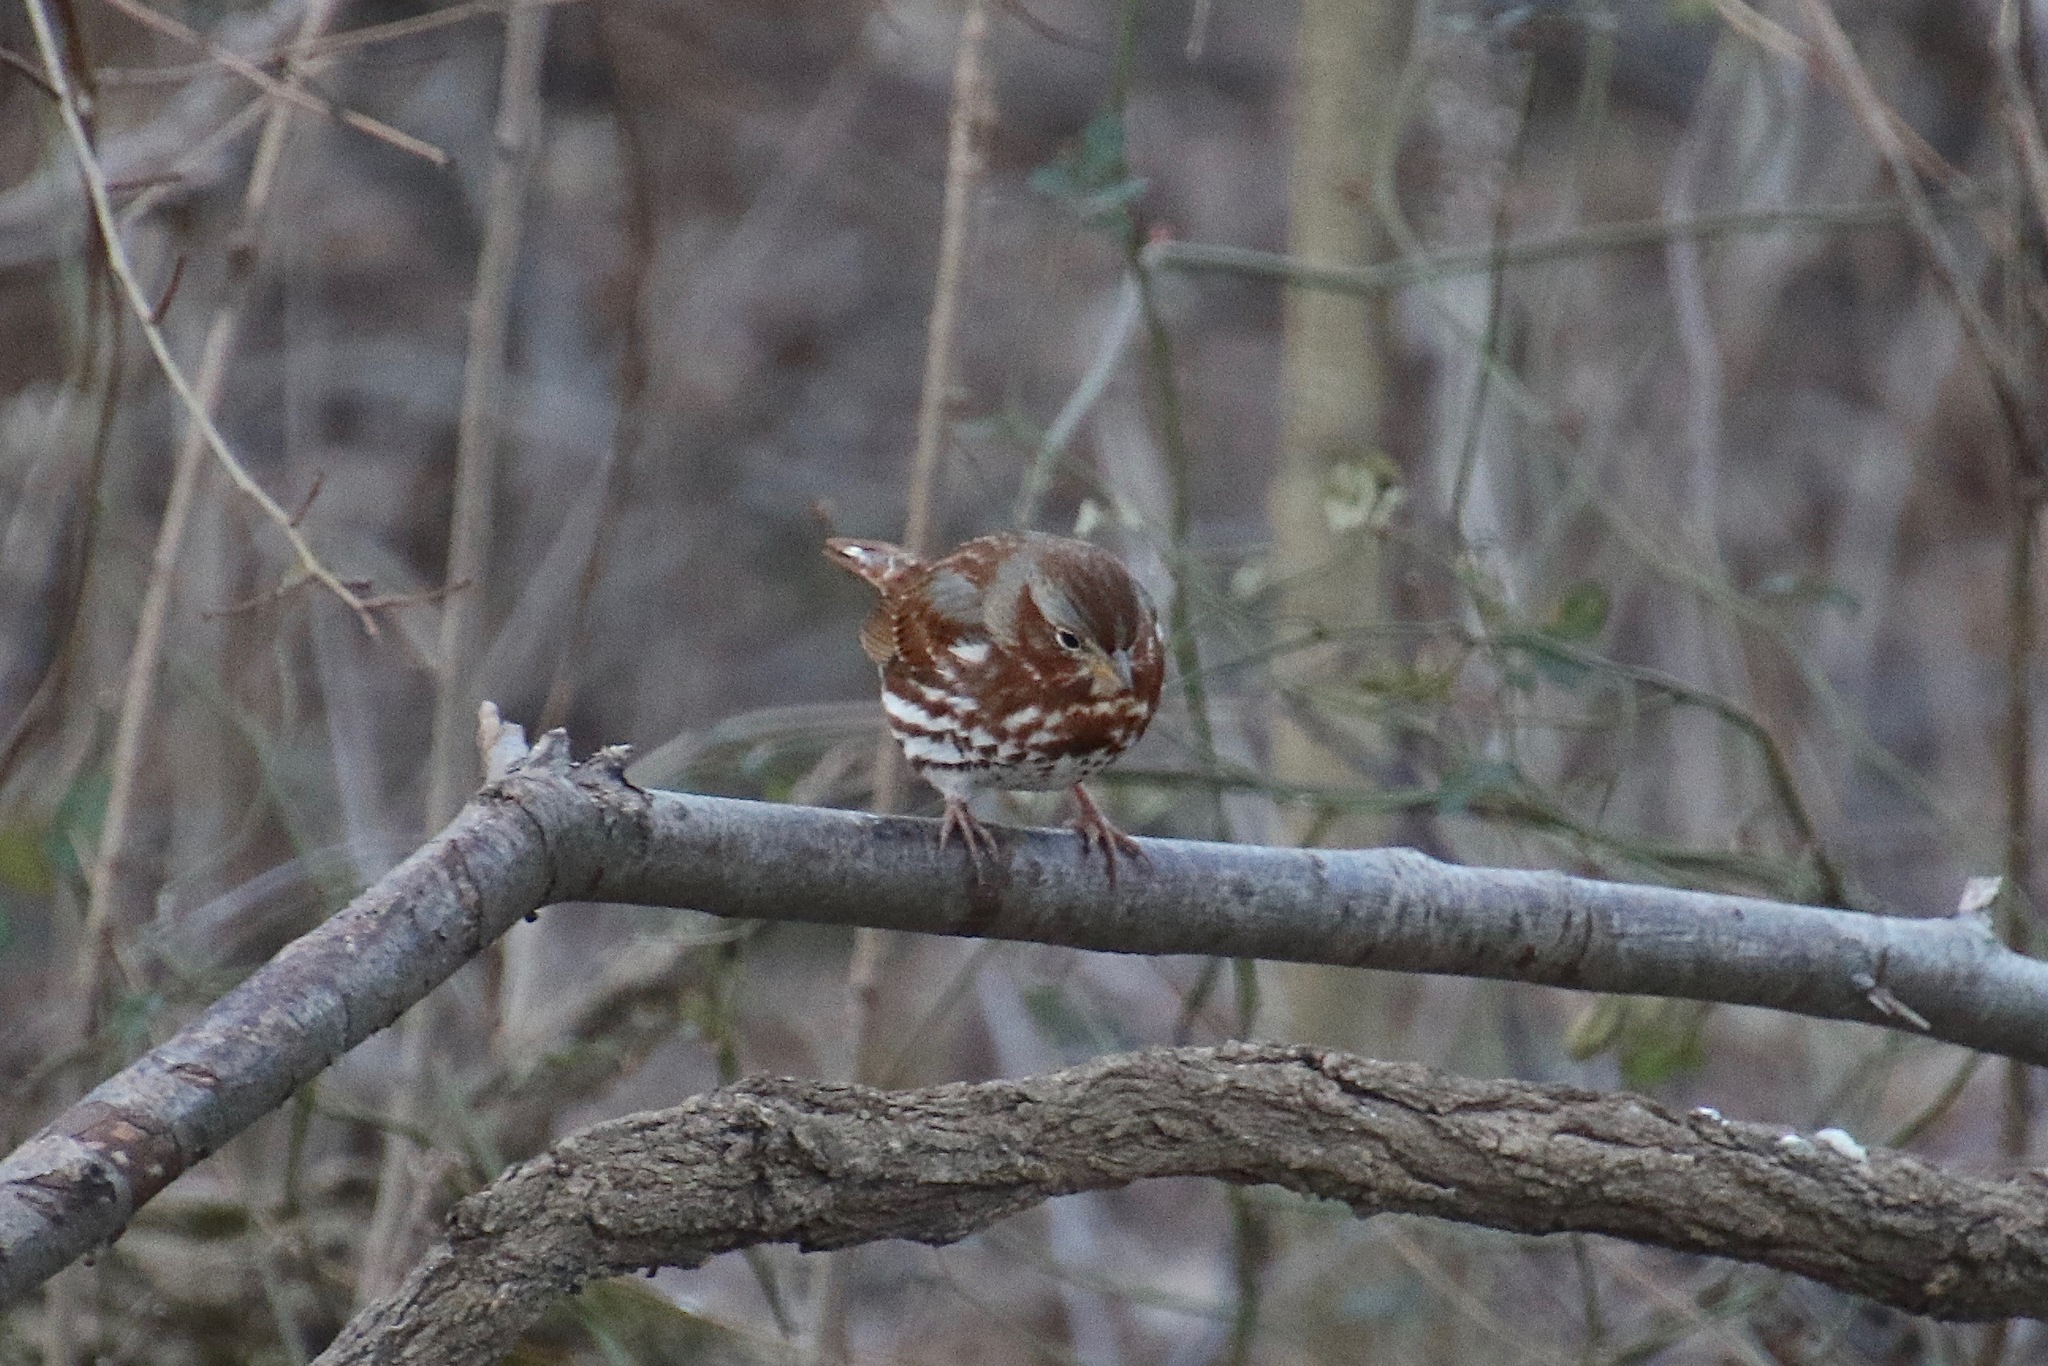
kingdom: Animalia
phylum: Chordata
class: Aves
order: Passeriformes
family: Passerellidae
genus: Passerella
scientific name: Passerella iliaca
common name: Fox sparrow
